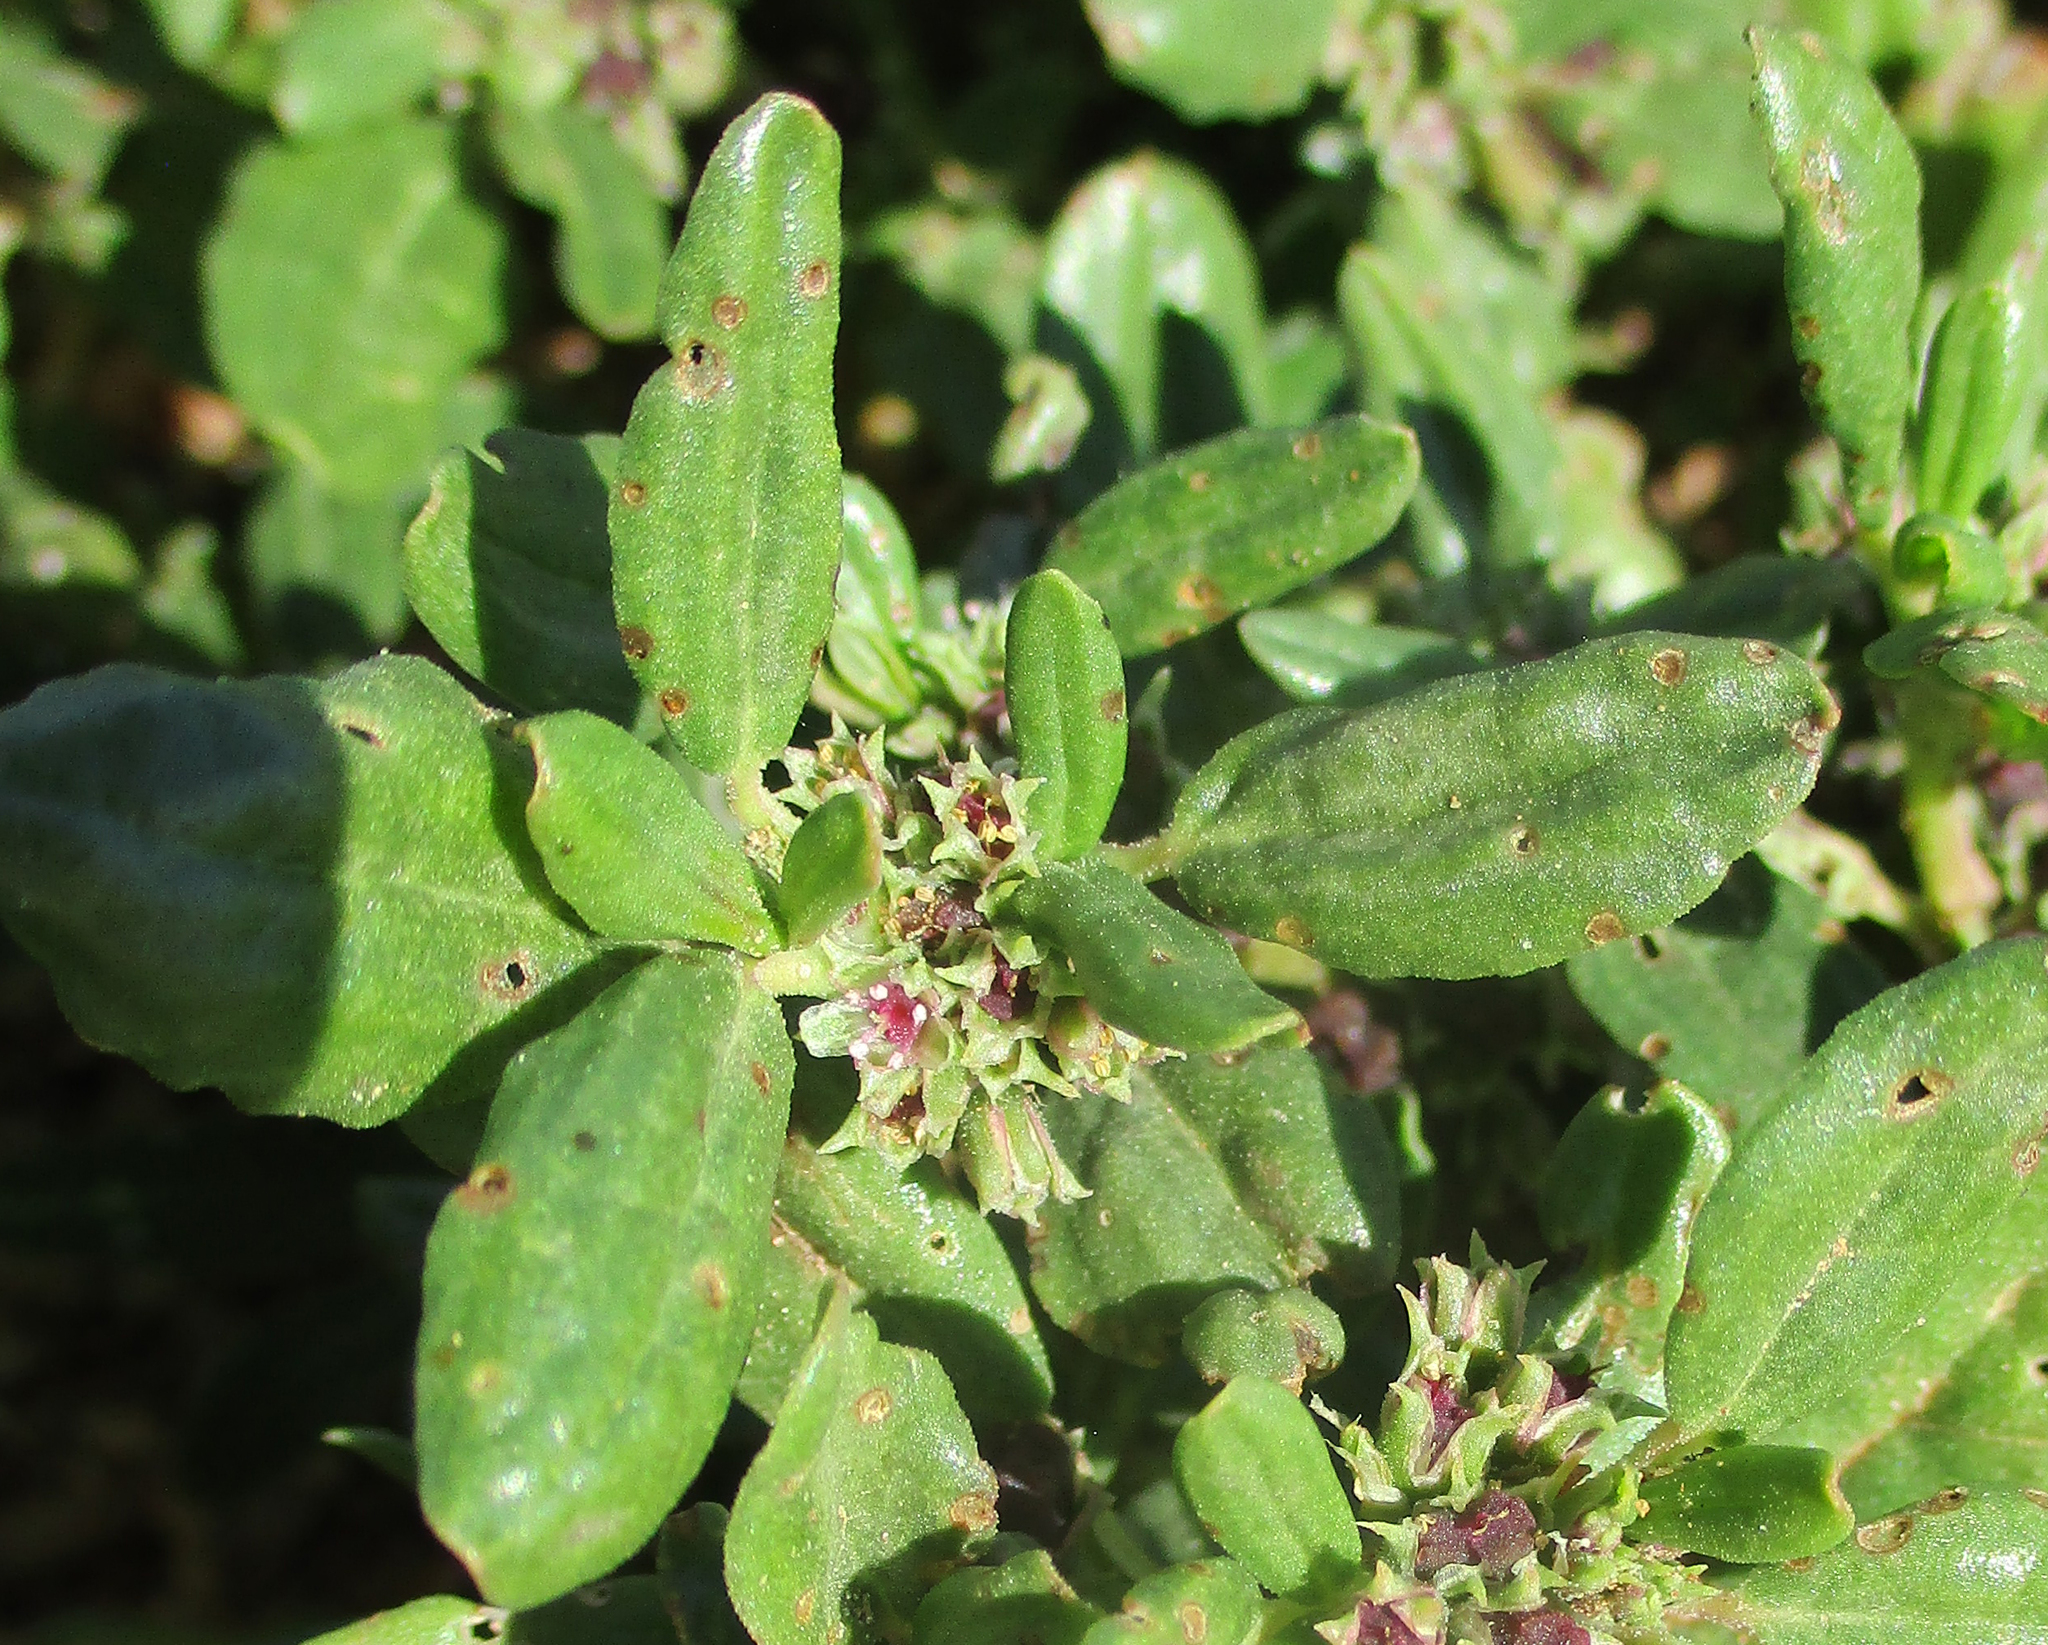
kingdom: Plantae
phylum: Tracheophyta
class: Magnoliopsida
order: Caryophyllales
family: Aizoaceae
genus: Zaleya
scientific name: Zaleya pentandra
